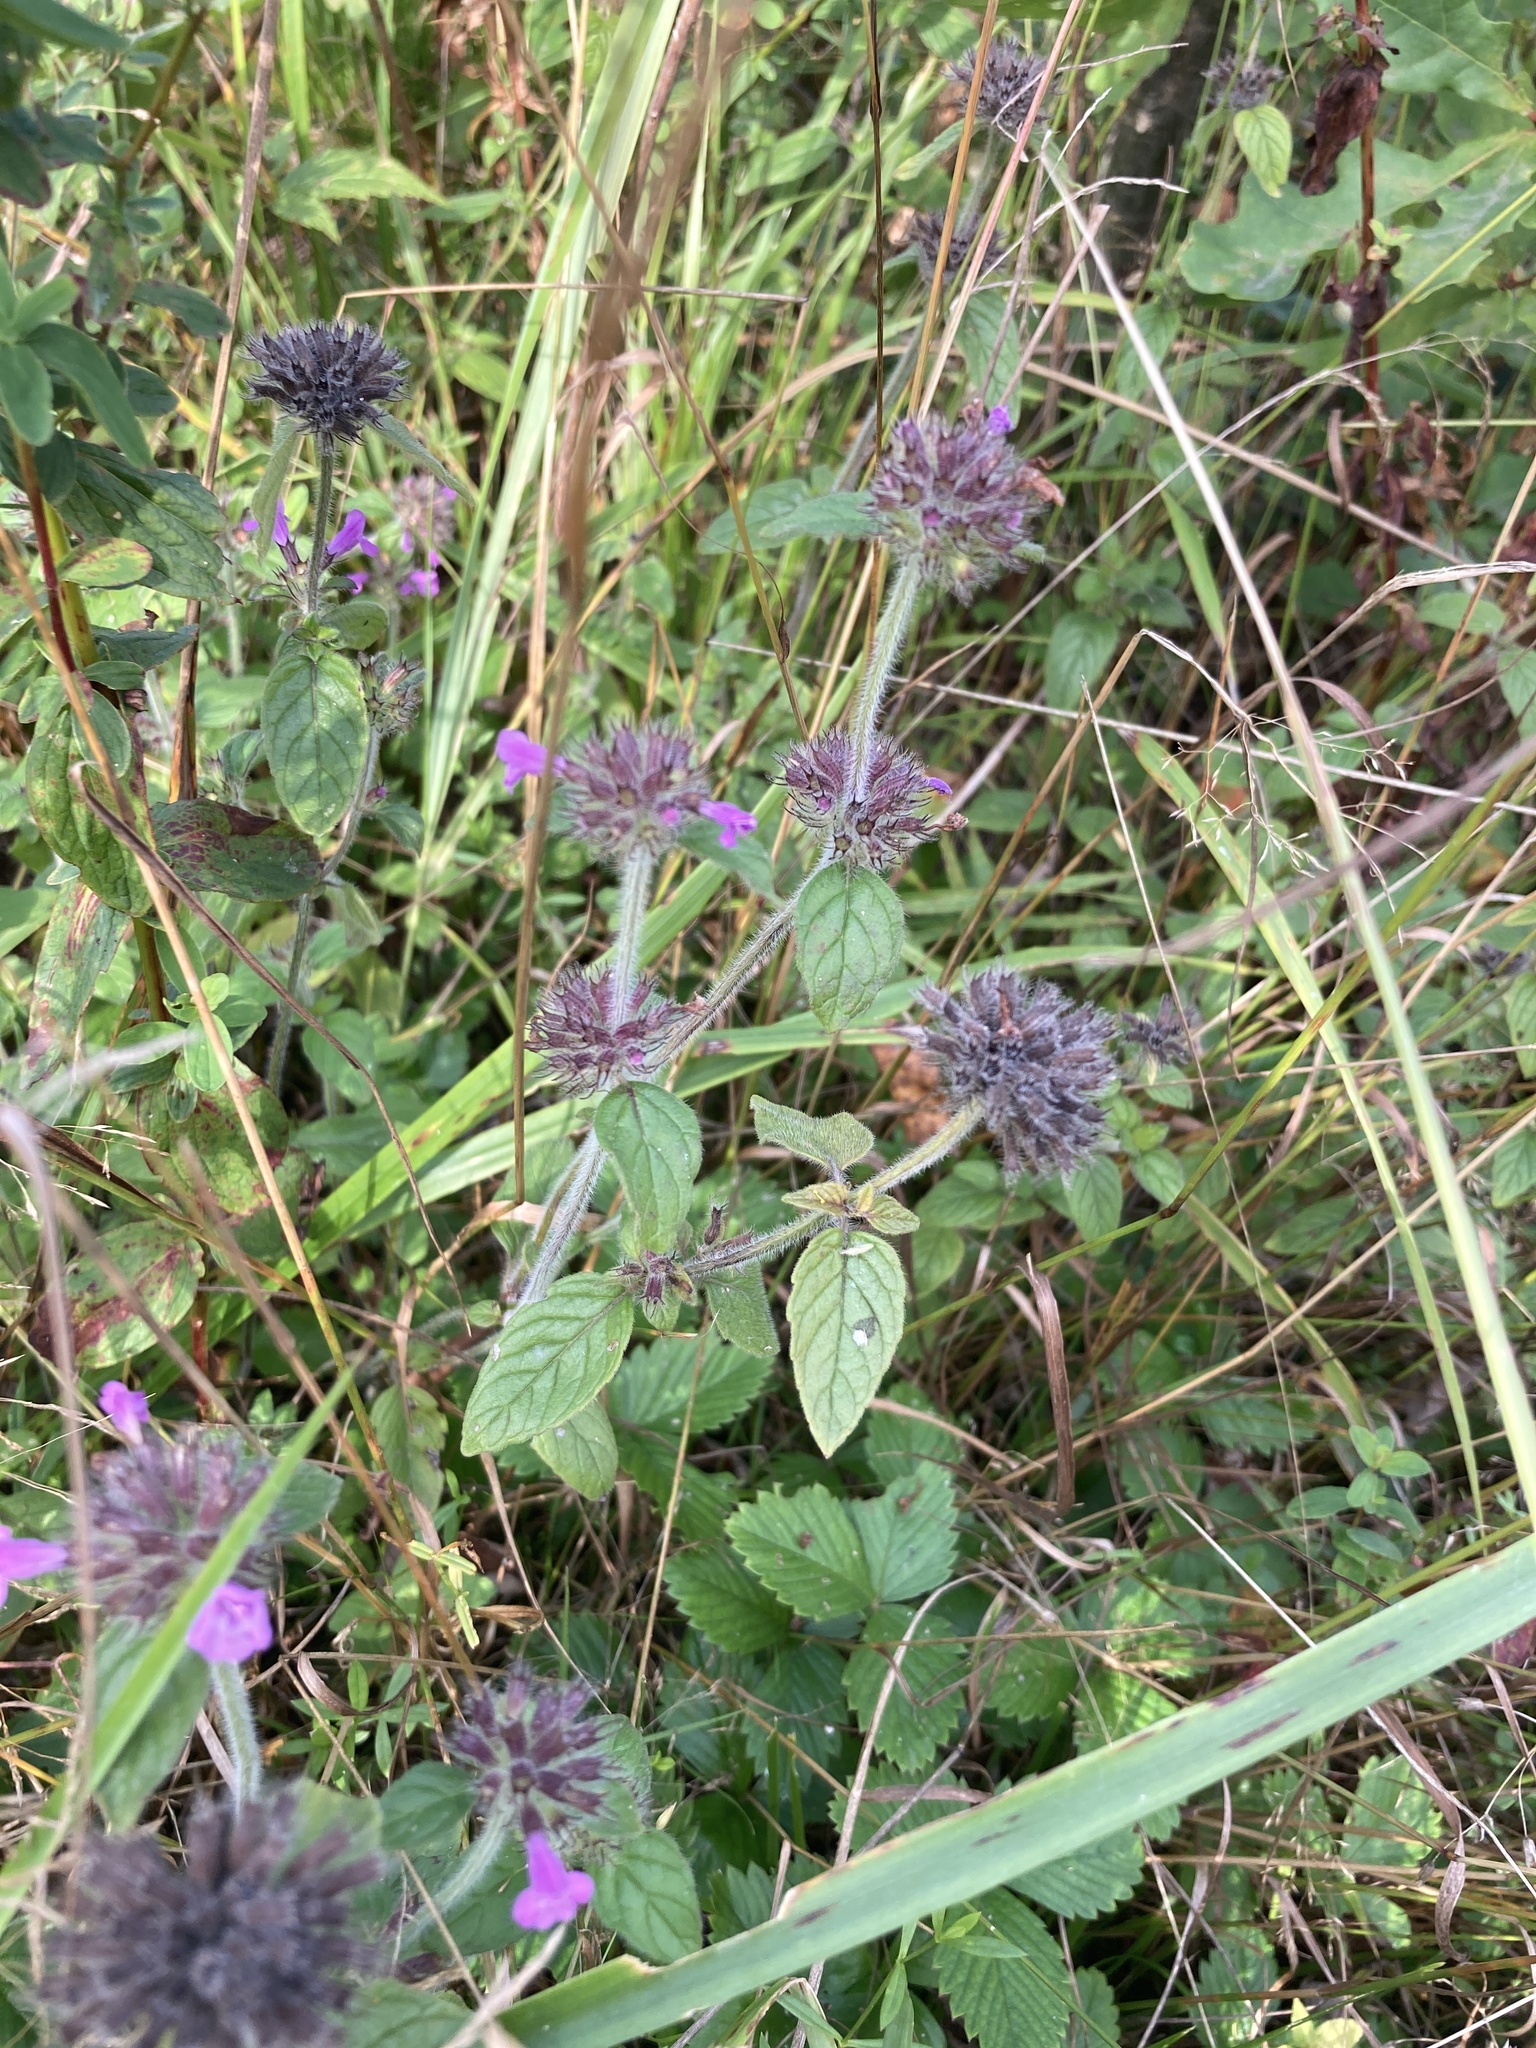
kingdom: Plantae
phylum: Tracheophyta
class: Magnoliopsida
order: Lamiales
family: Lamiaceae
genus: Clinopodium
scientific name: Clinopodium vulgare
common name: Wild basil
